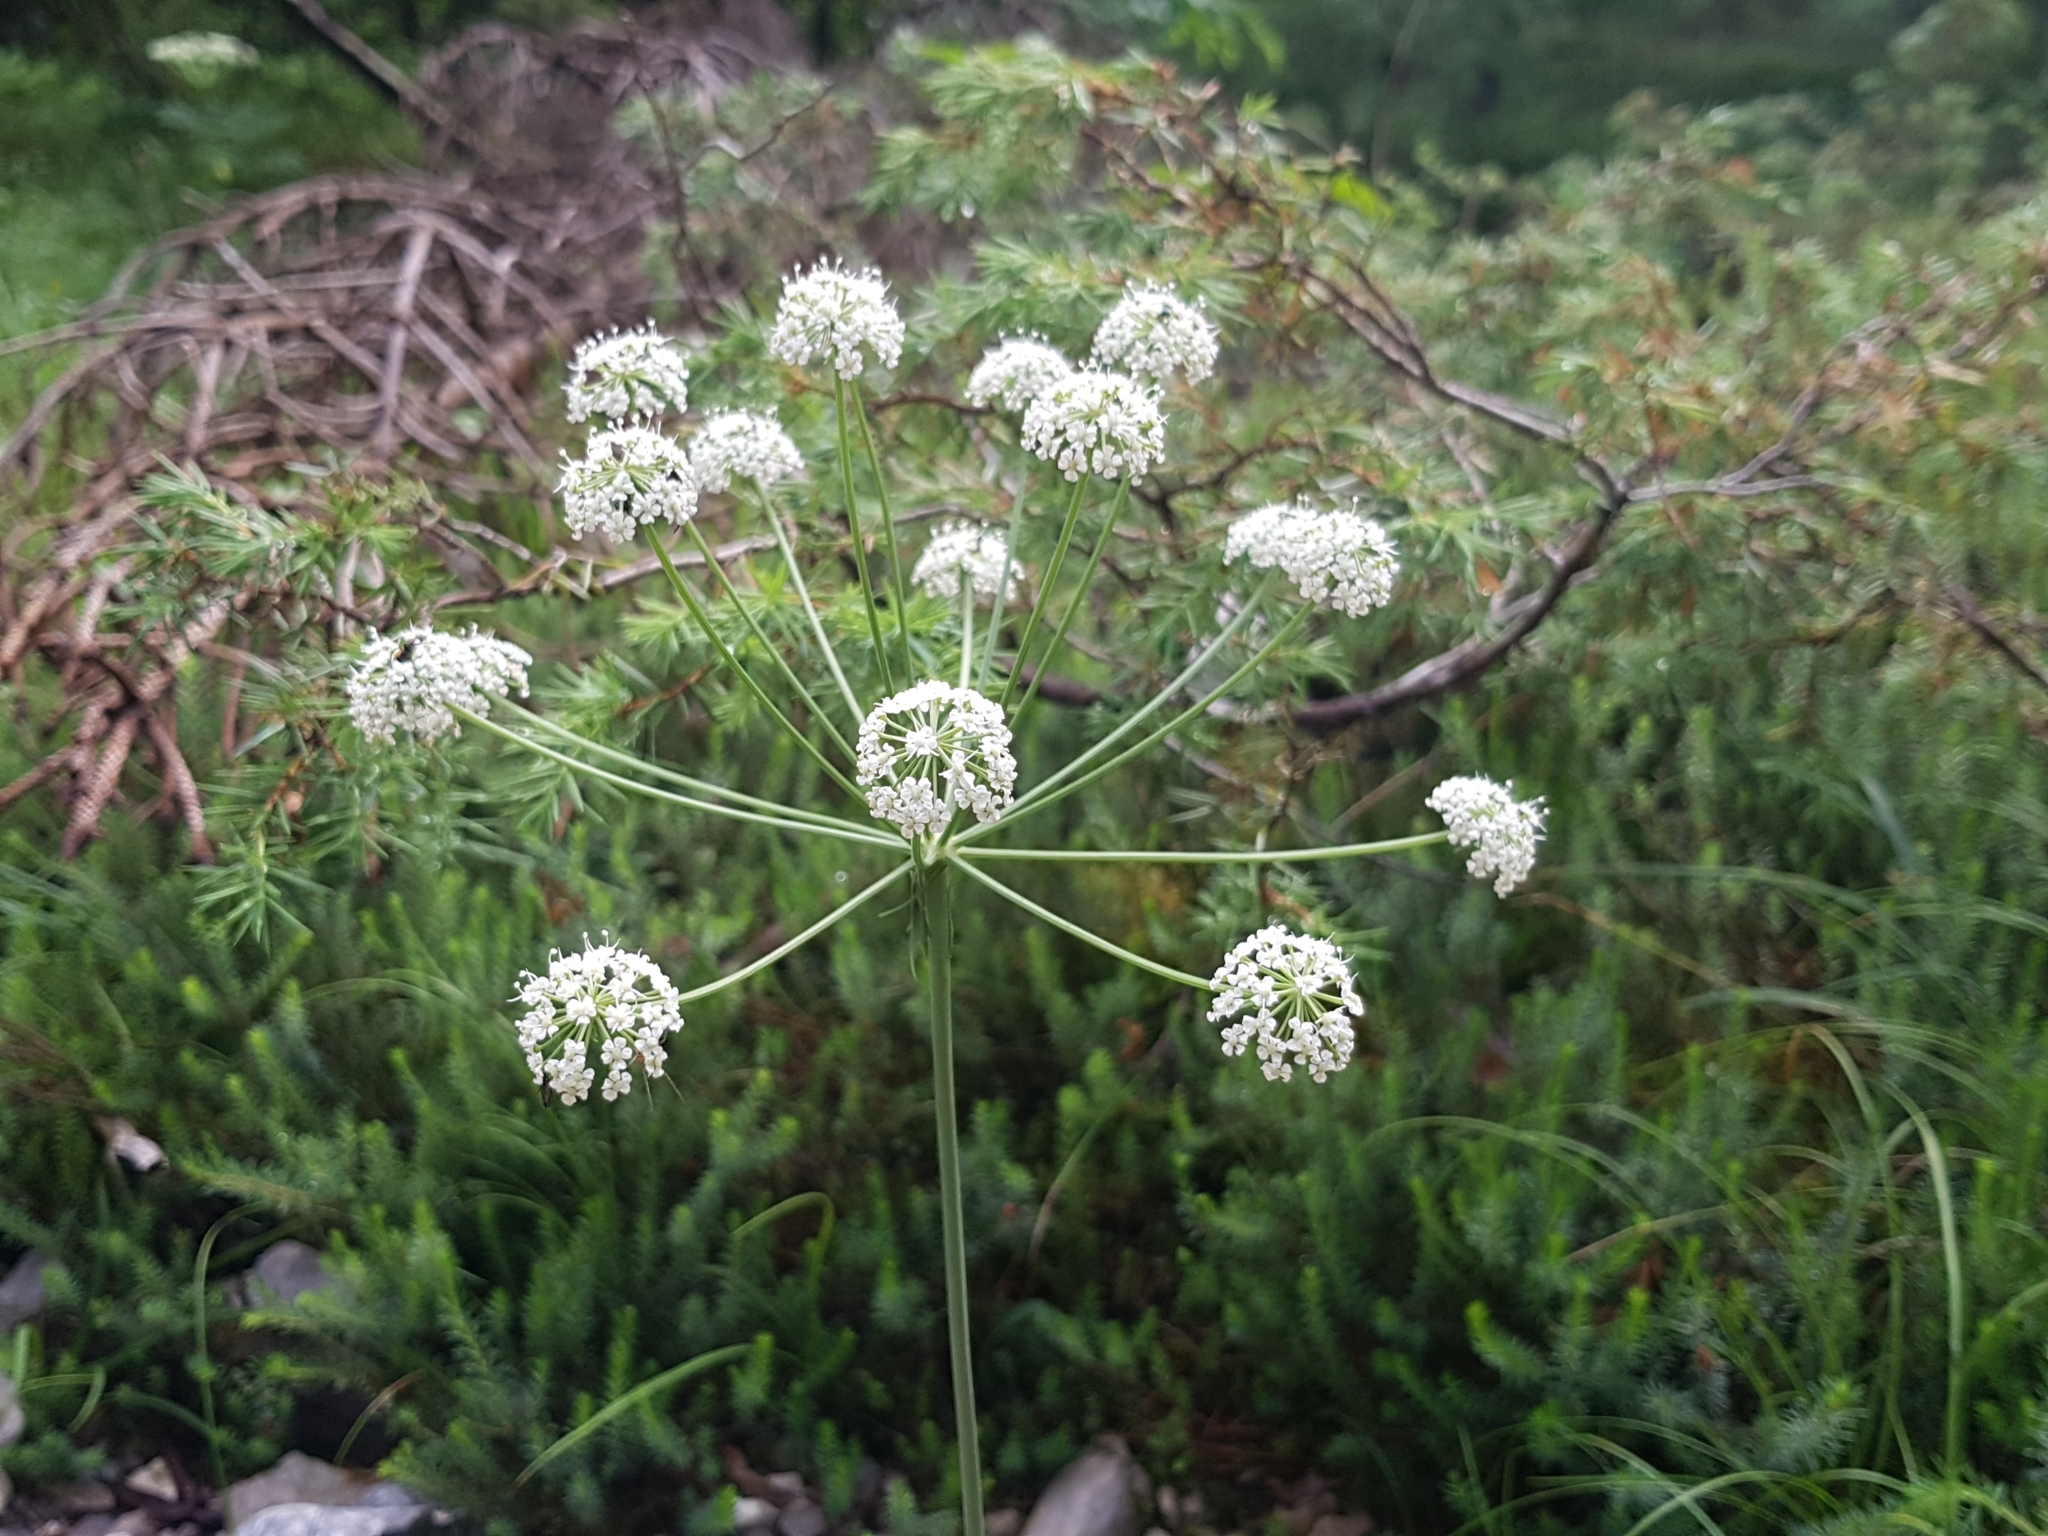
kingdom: Plantae
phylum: Tracheophyta
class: Magnoliopsida
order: Apiales
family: Apiaceae
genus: Oreoselinum
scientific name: Oreoselinum nigrum
